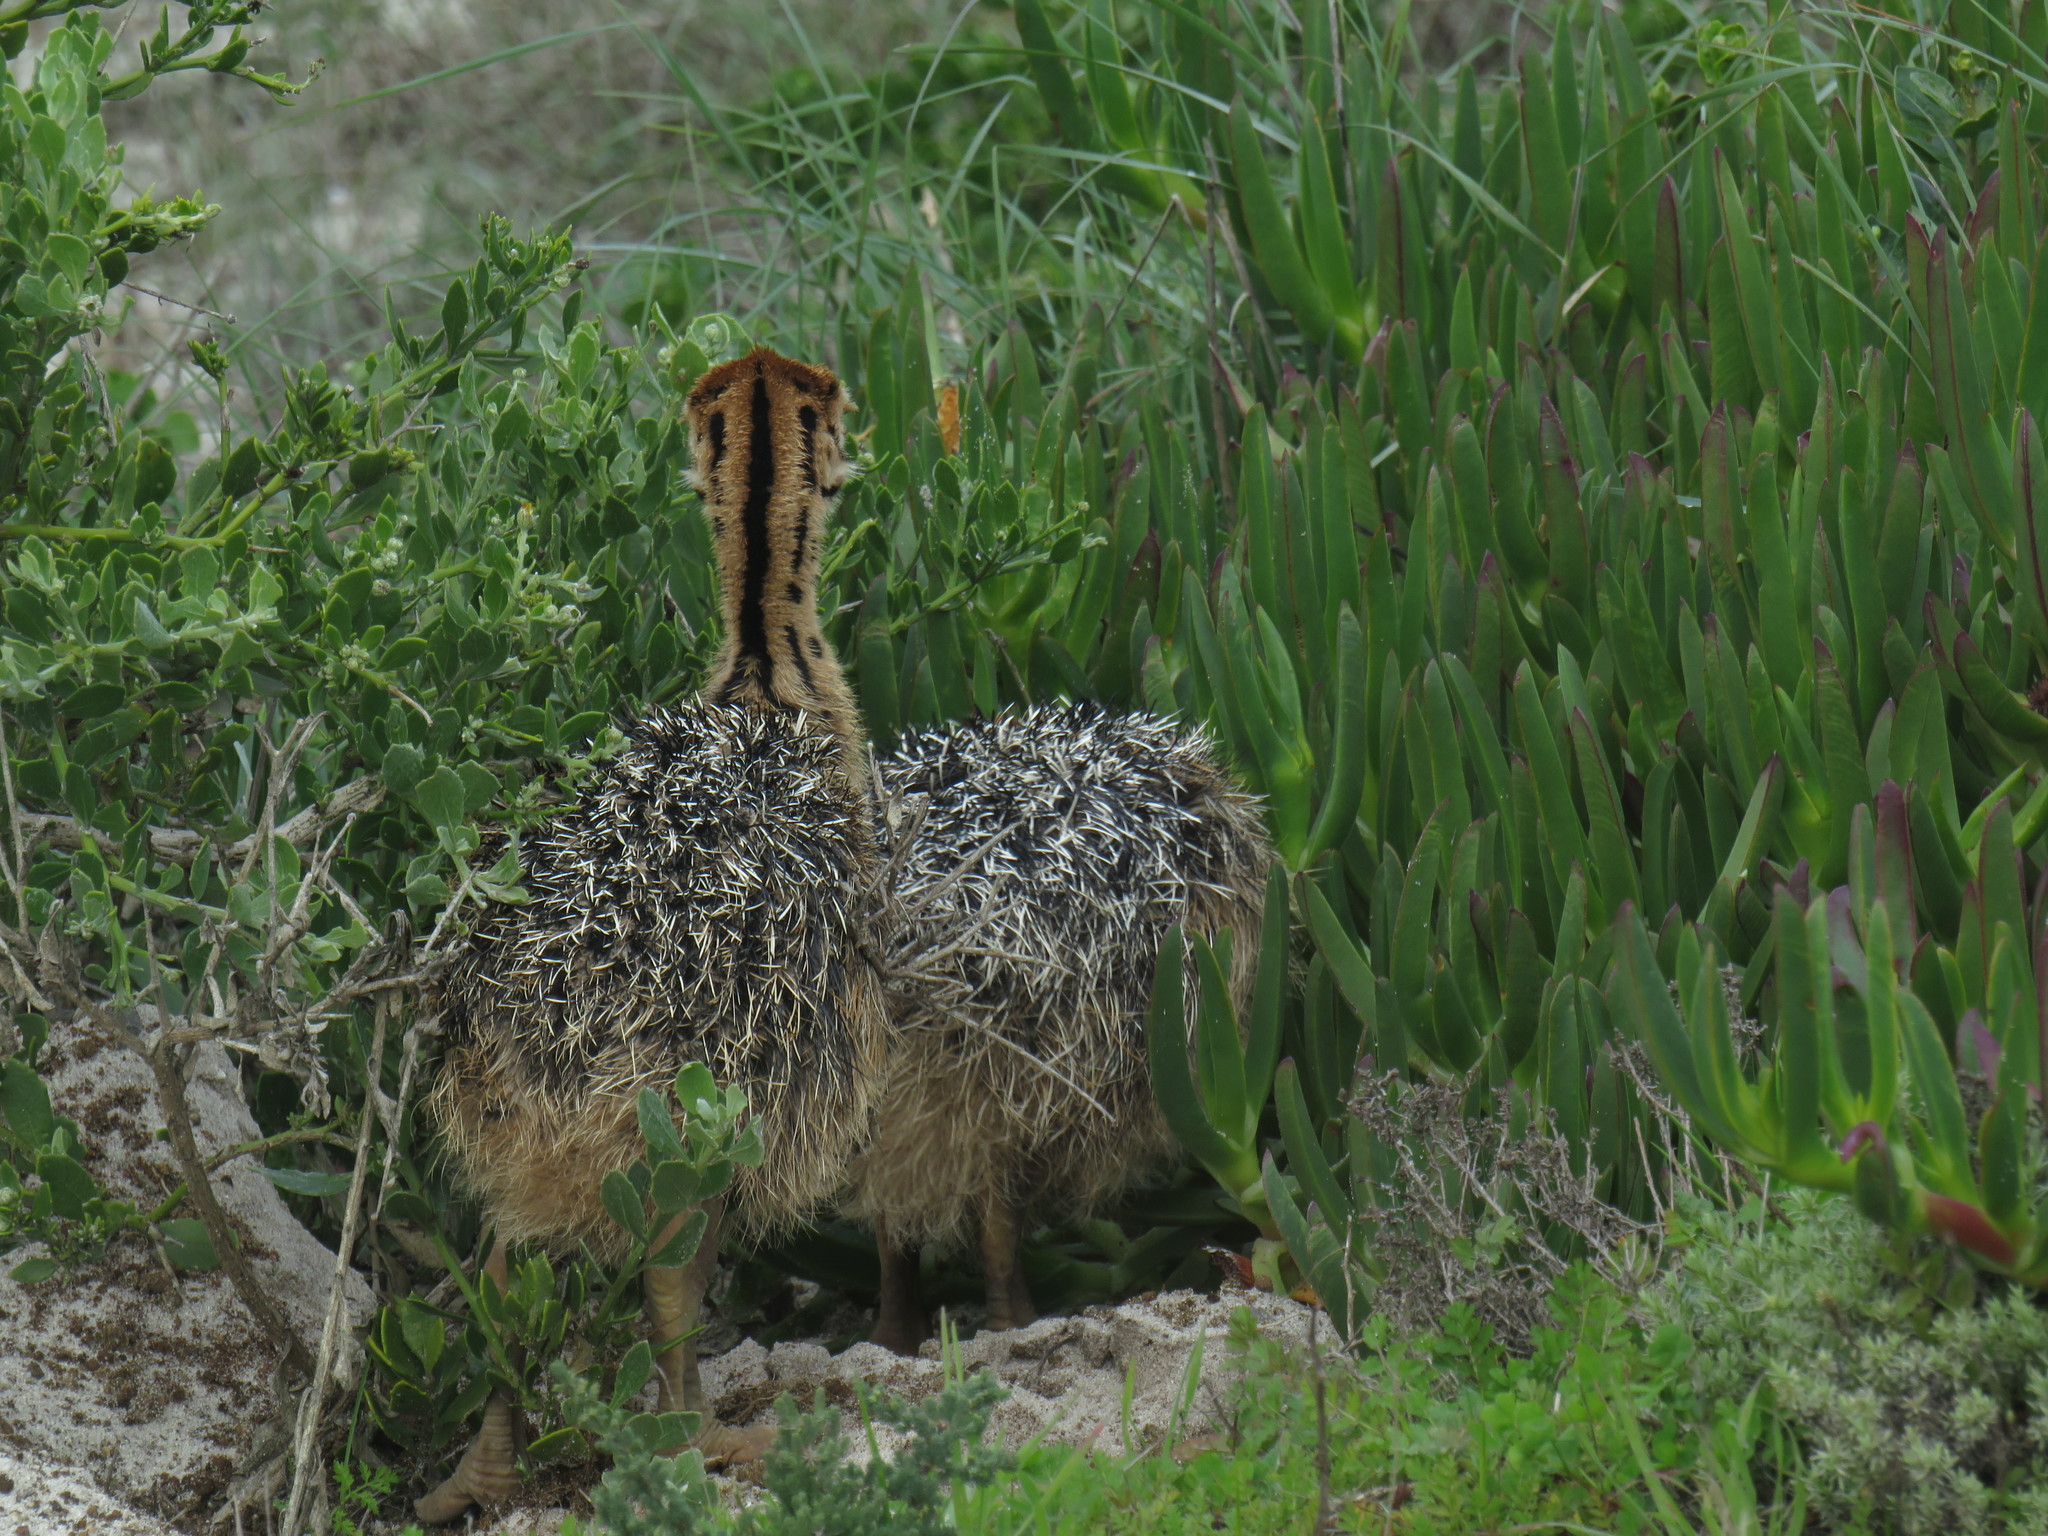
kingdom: Animalia
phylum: Chordata
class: Aves
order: Struthioniformes
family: Struthionidae
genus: Struthio
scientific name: Struthio camelus
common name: Common ostrich
